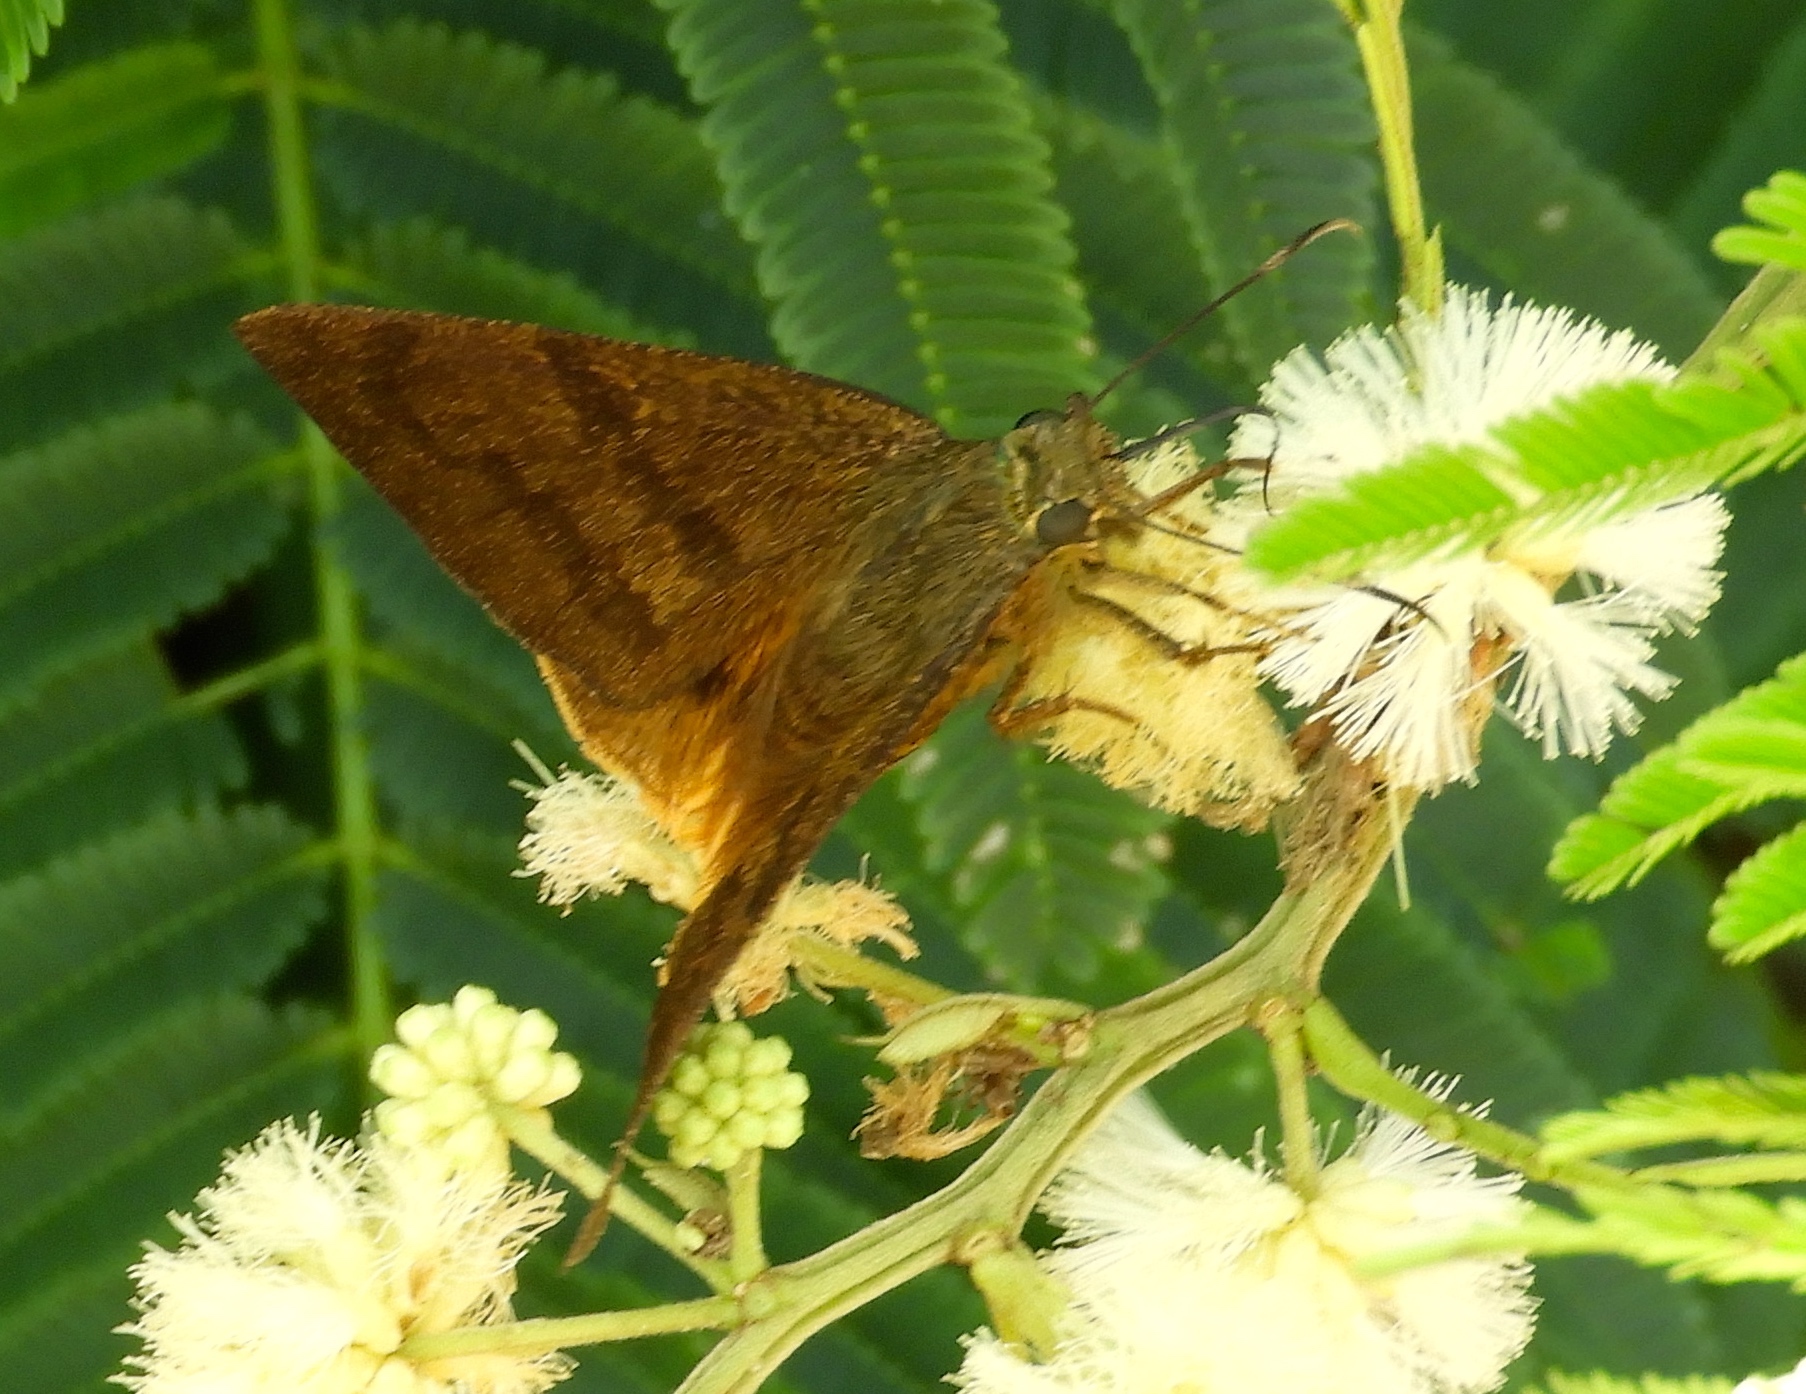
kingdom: Animalia
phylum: Arthropoda
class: Insecta
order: Lepidoptera
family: Hesperiidae
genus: Astraptes
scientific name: Astraptes
